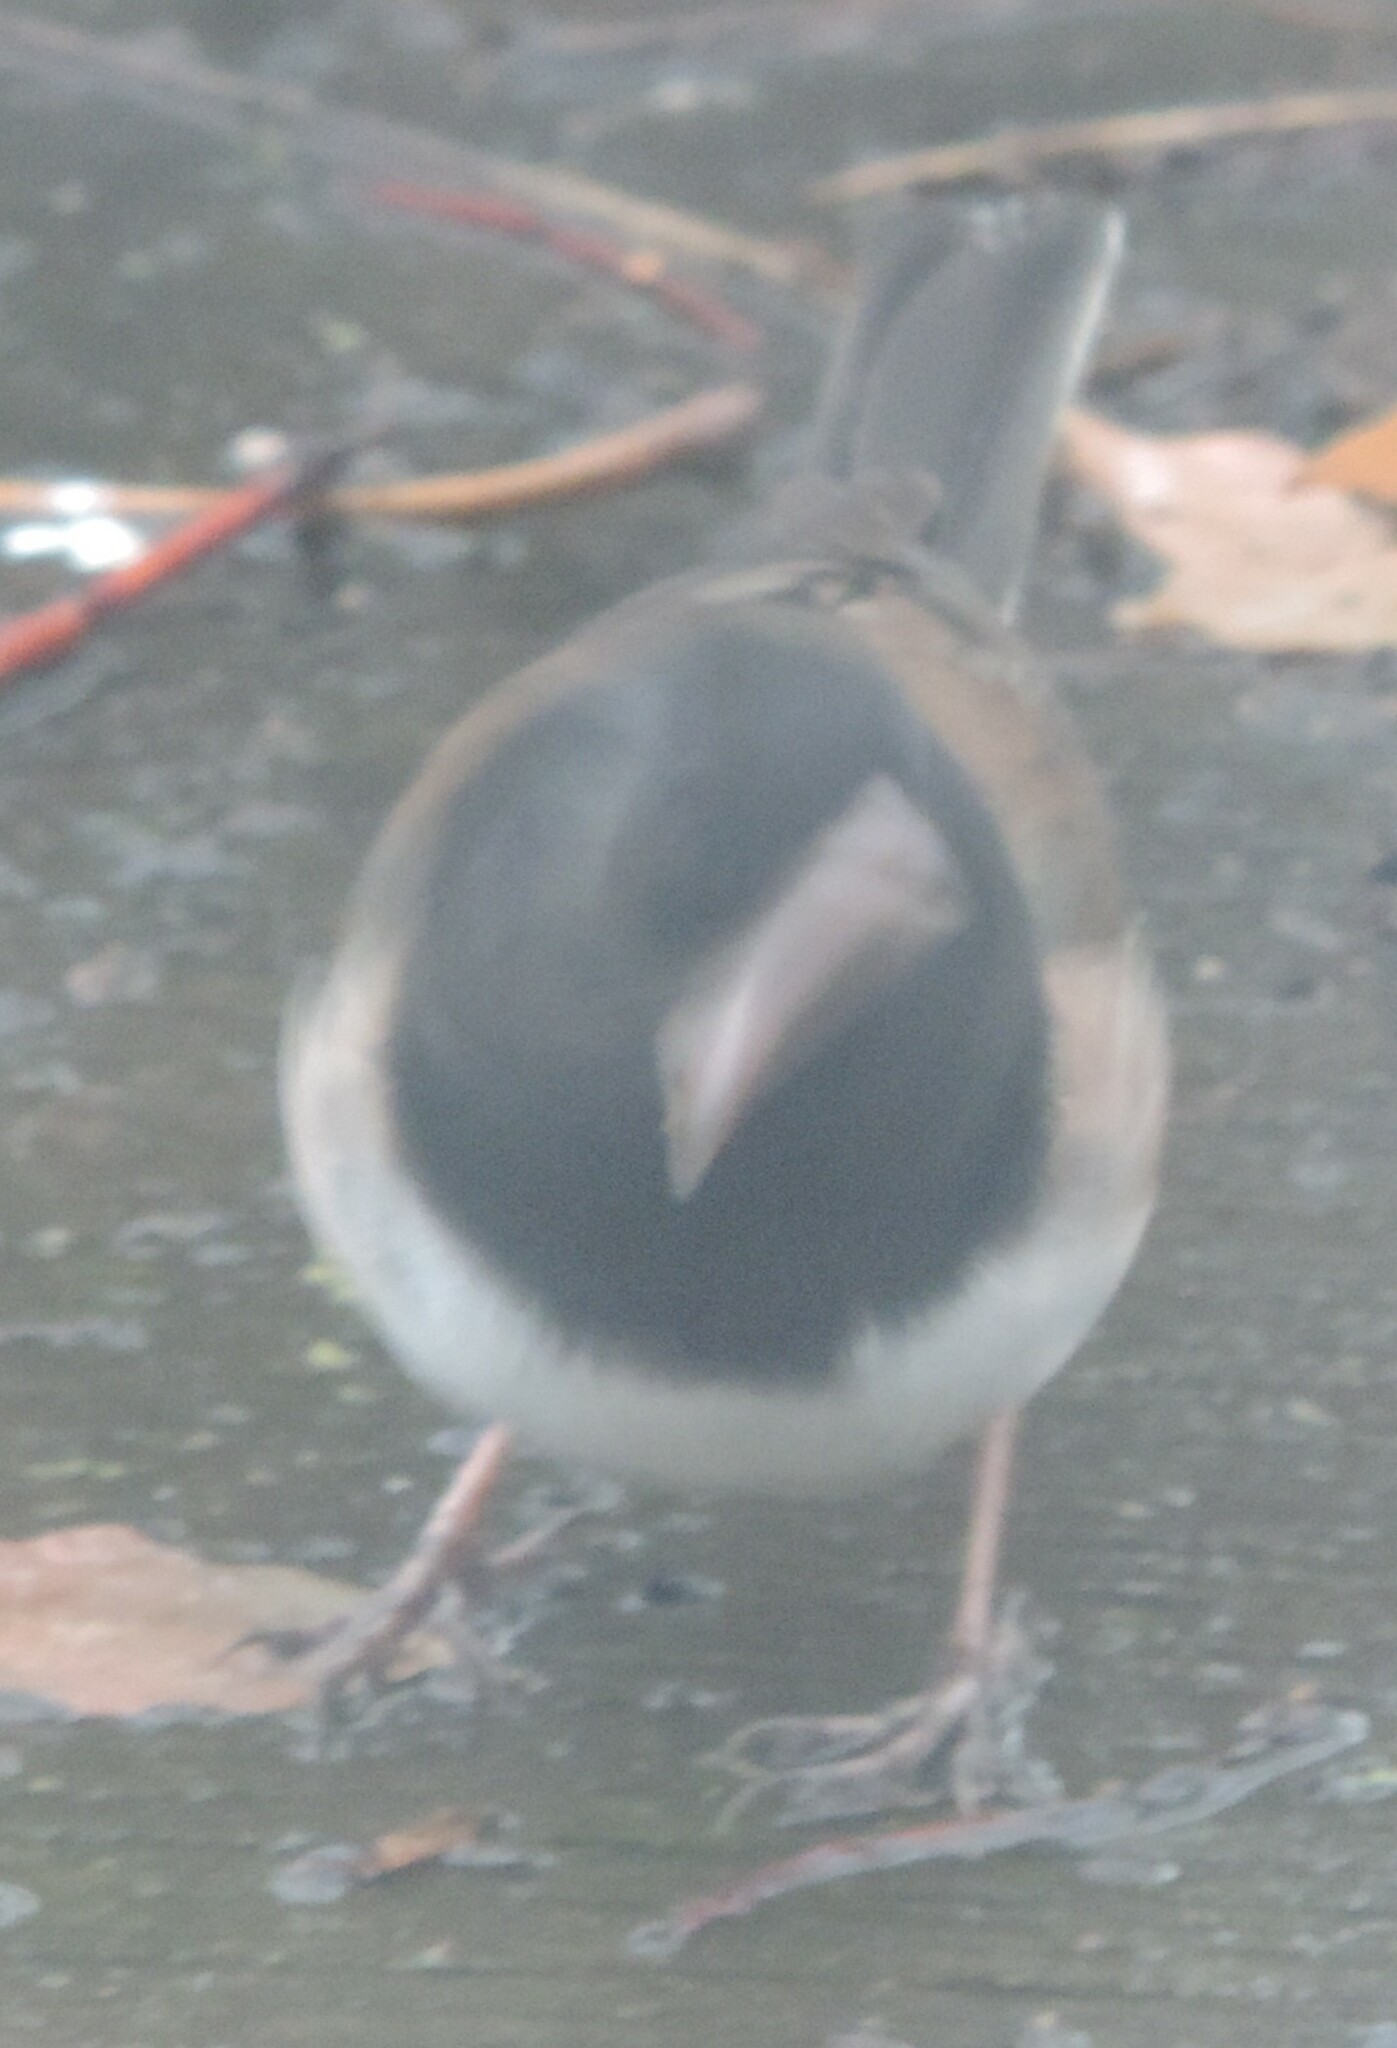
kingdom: Animalia
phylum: Chordata
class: Aves
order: Passeriformes
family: Passerellidae
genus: Junco
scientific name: Junco hyemalis
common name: Dark-eyed junco
